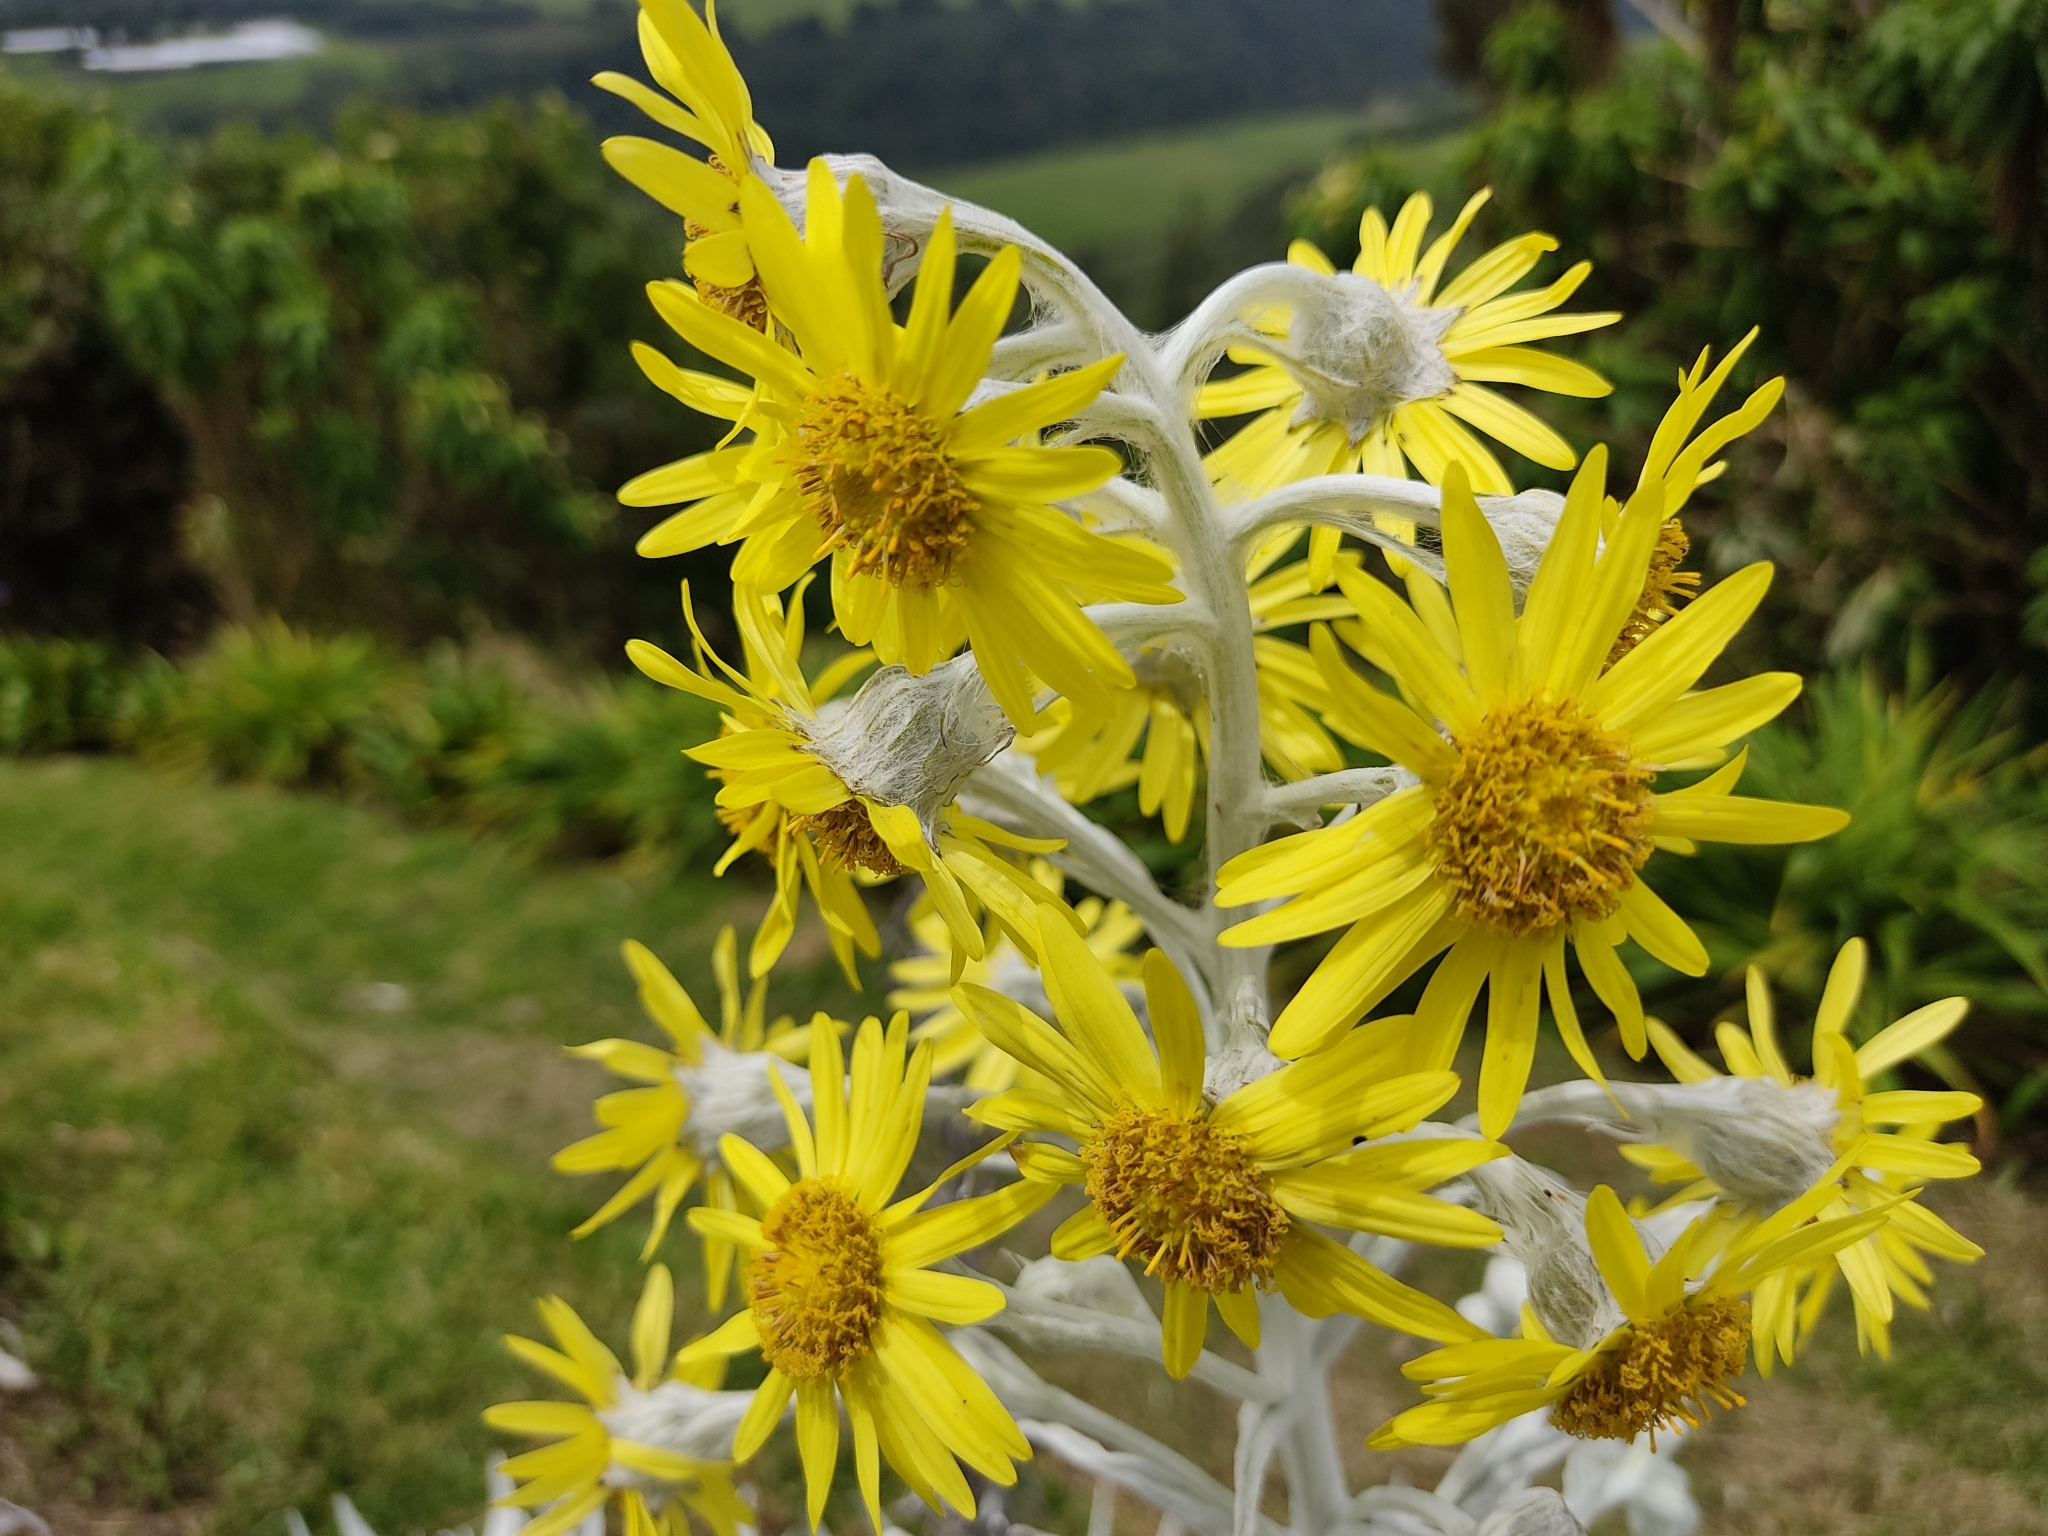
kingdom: Plantae
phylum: Tracheophyta
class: Magnoliopsida
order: Asterales
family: Asteraceae
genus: Senecio
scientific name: Senecio niveoaureus
